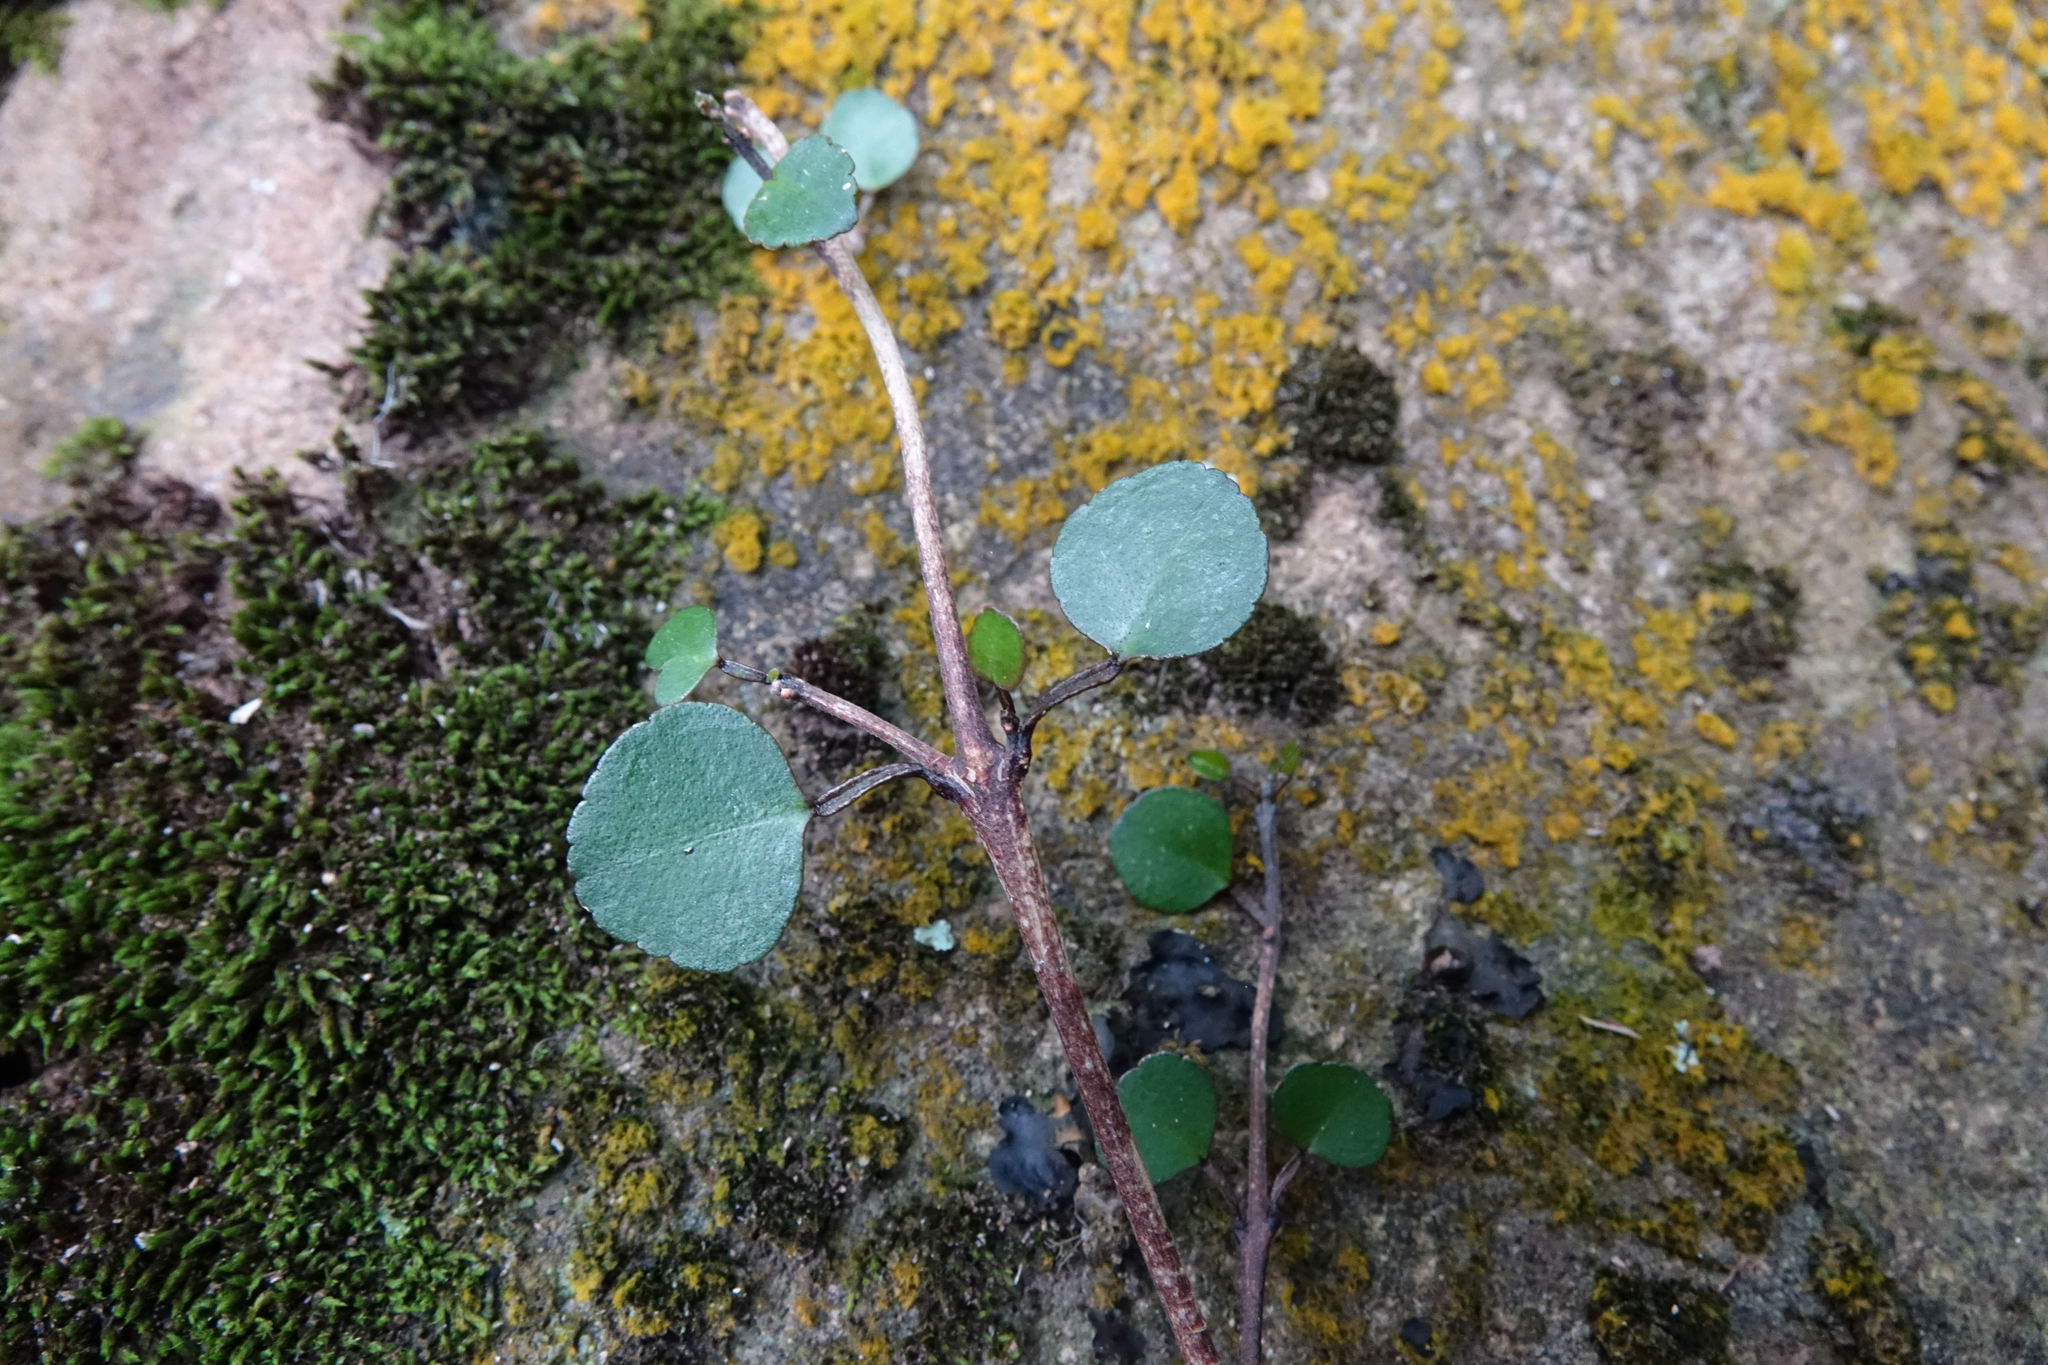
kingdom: Plantae
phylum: Tracheophyta
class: Magnoliopsida
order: Sapindales
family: Rutaceae
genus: Melicope
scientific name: Melicope simplex
